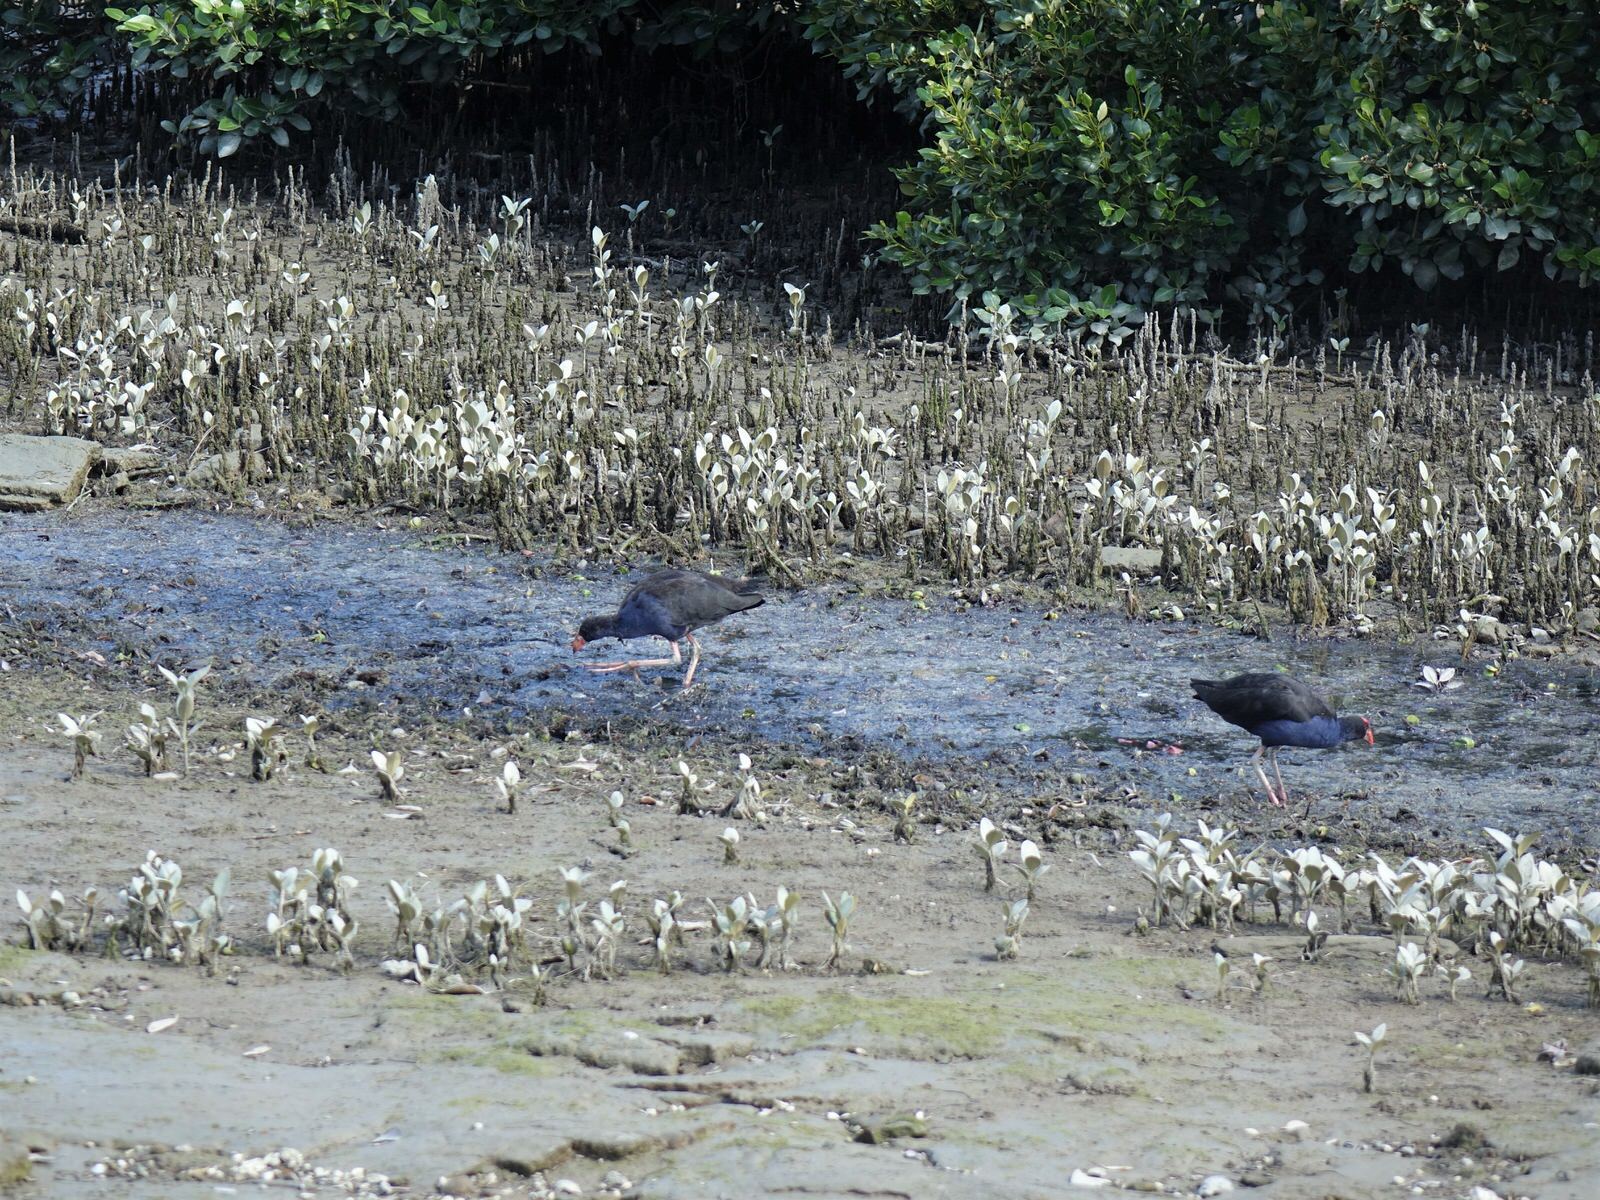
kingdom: Animalia
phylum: Chordata
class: Aves
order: Gruiformes
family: Rallidae
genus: Porphyrio
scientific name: Porphyrio melanotus
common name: Australasian swamphen
